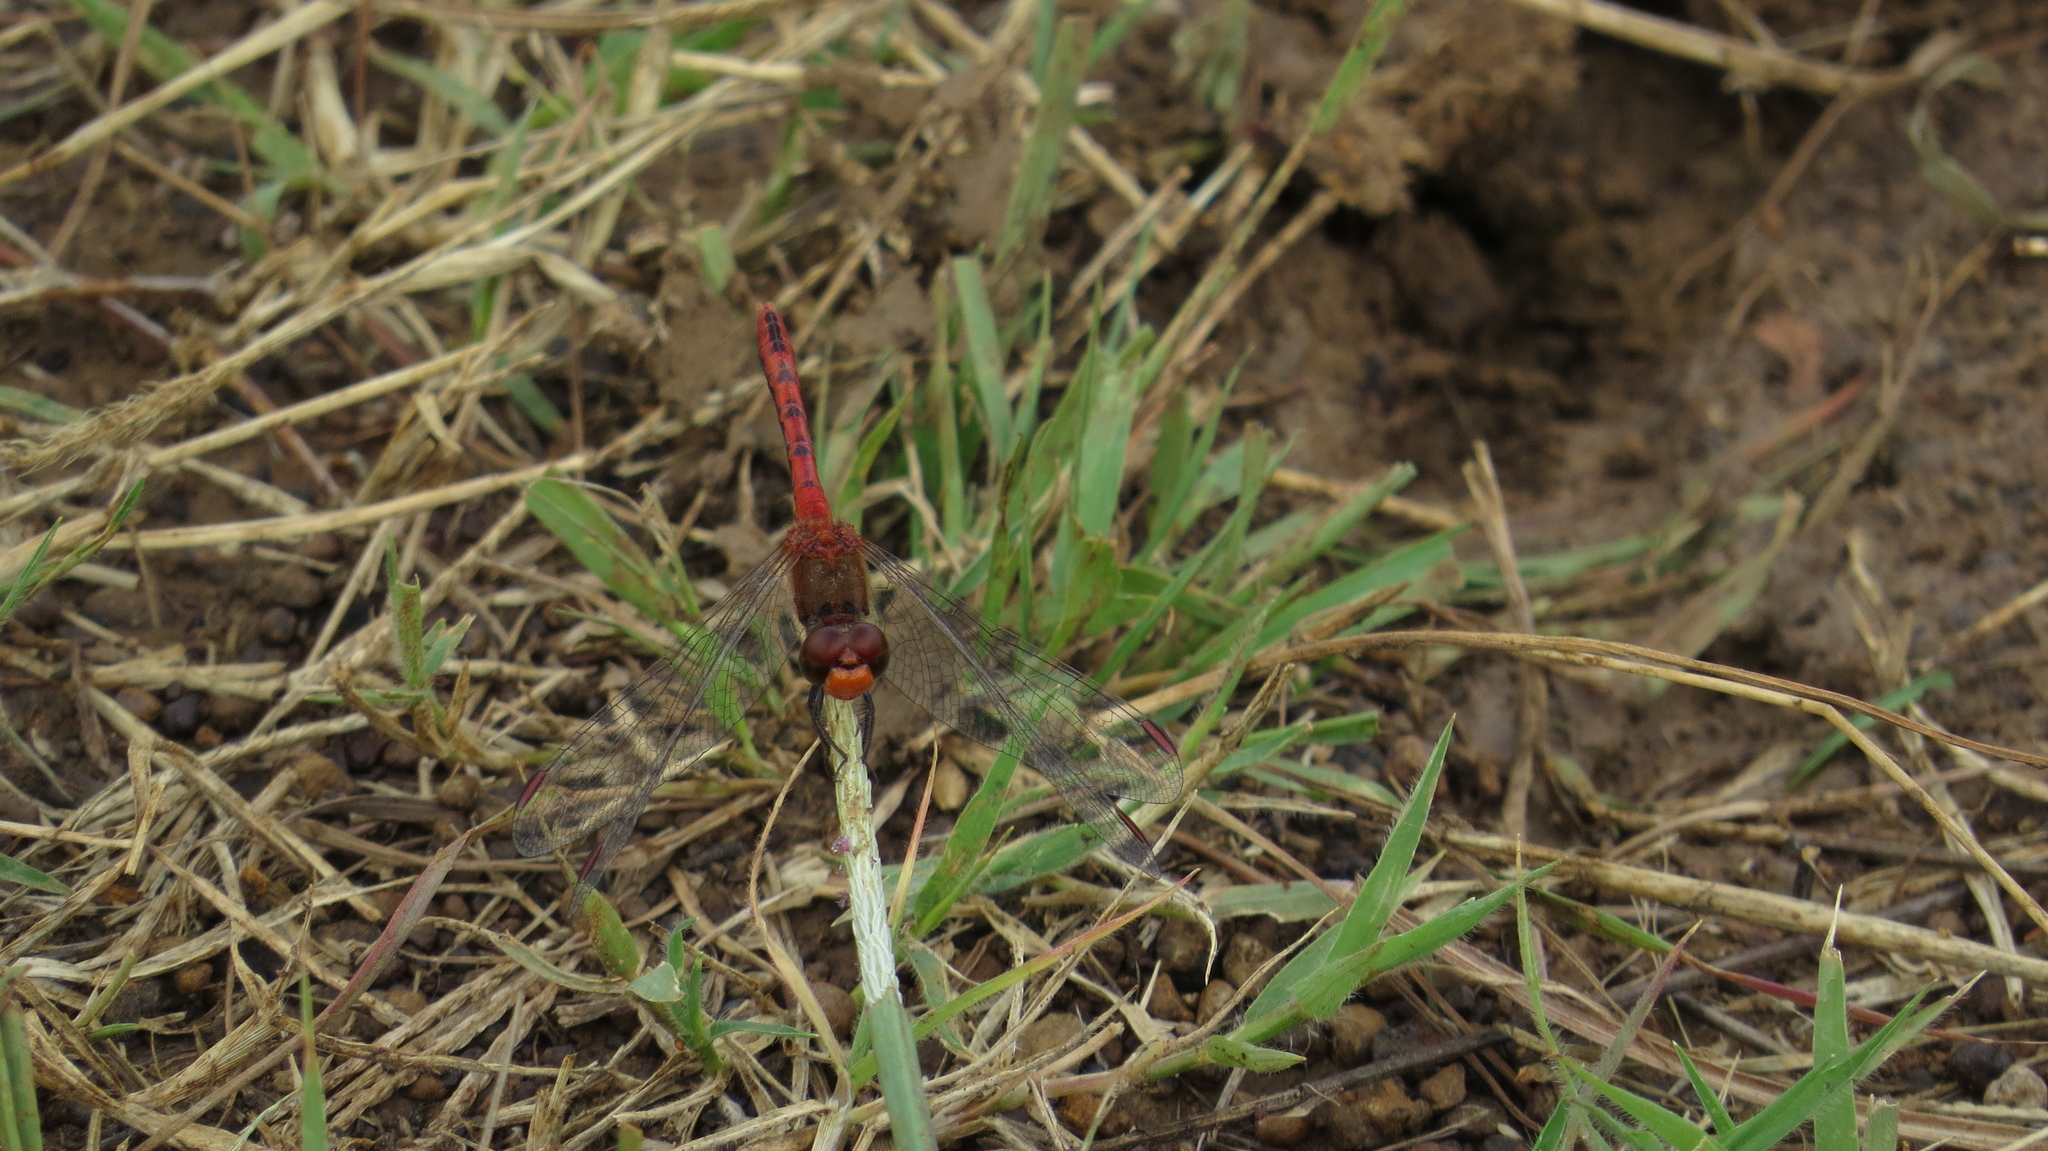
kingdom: Animalia
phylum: Arthropoda
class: Insecta
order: Odonata
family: Libellulidae
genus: Diplacodes
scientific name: Diplacodes bipunctata
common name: Red percher dragonfly
